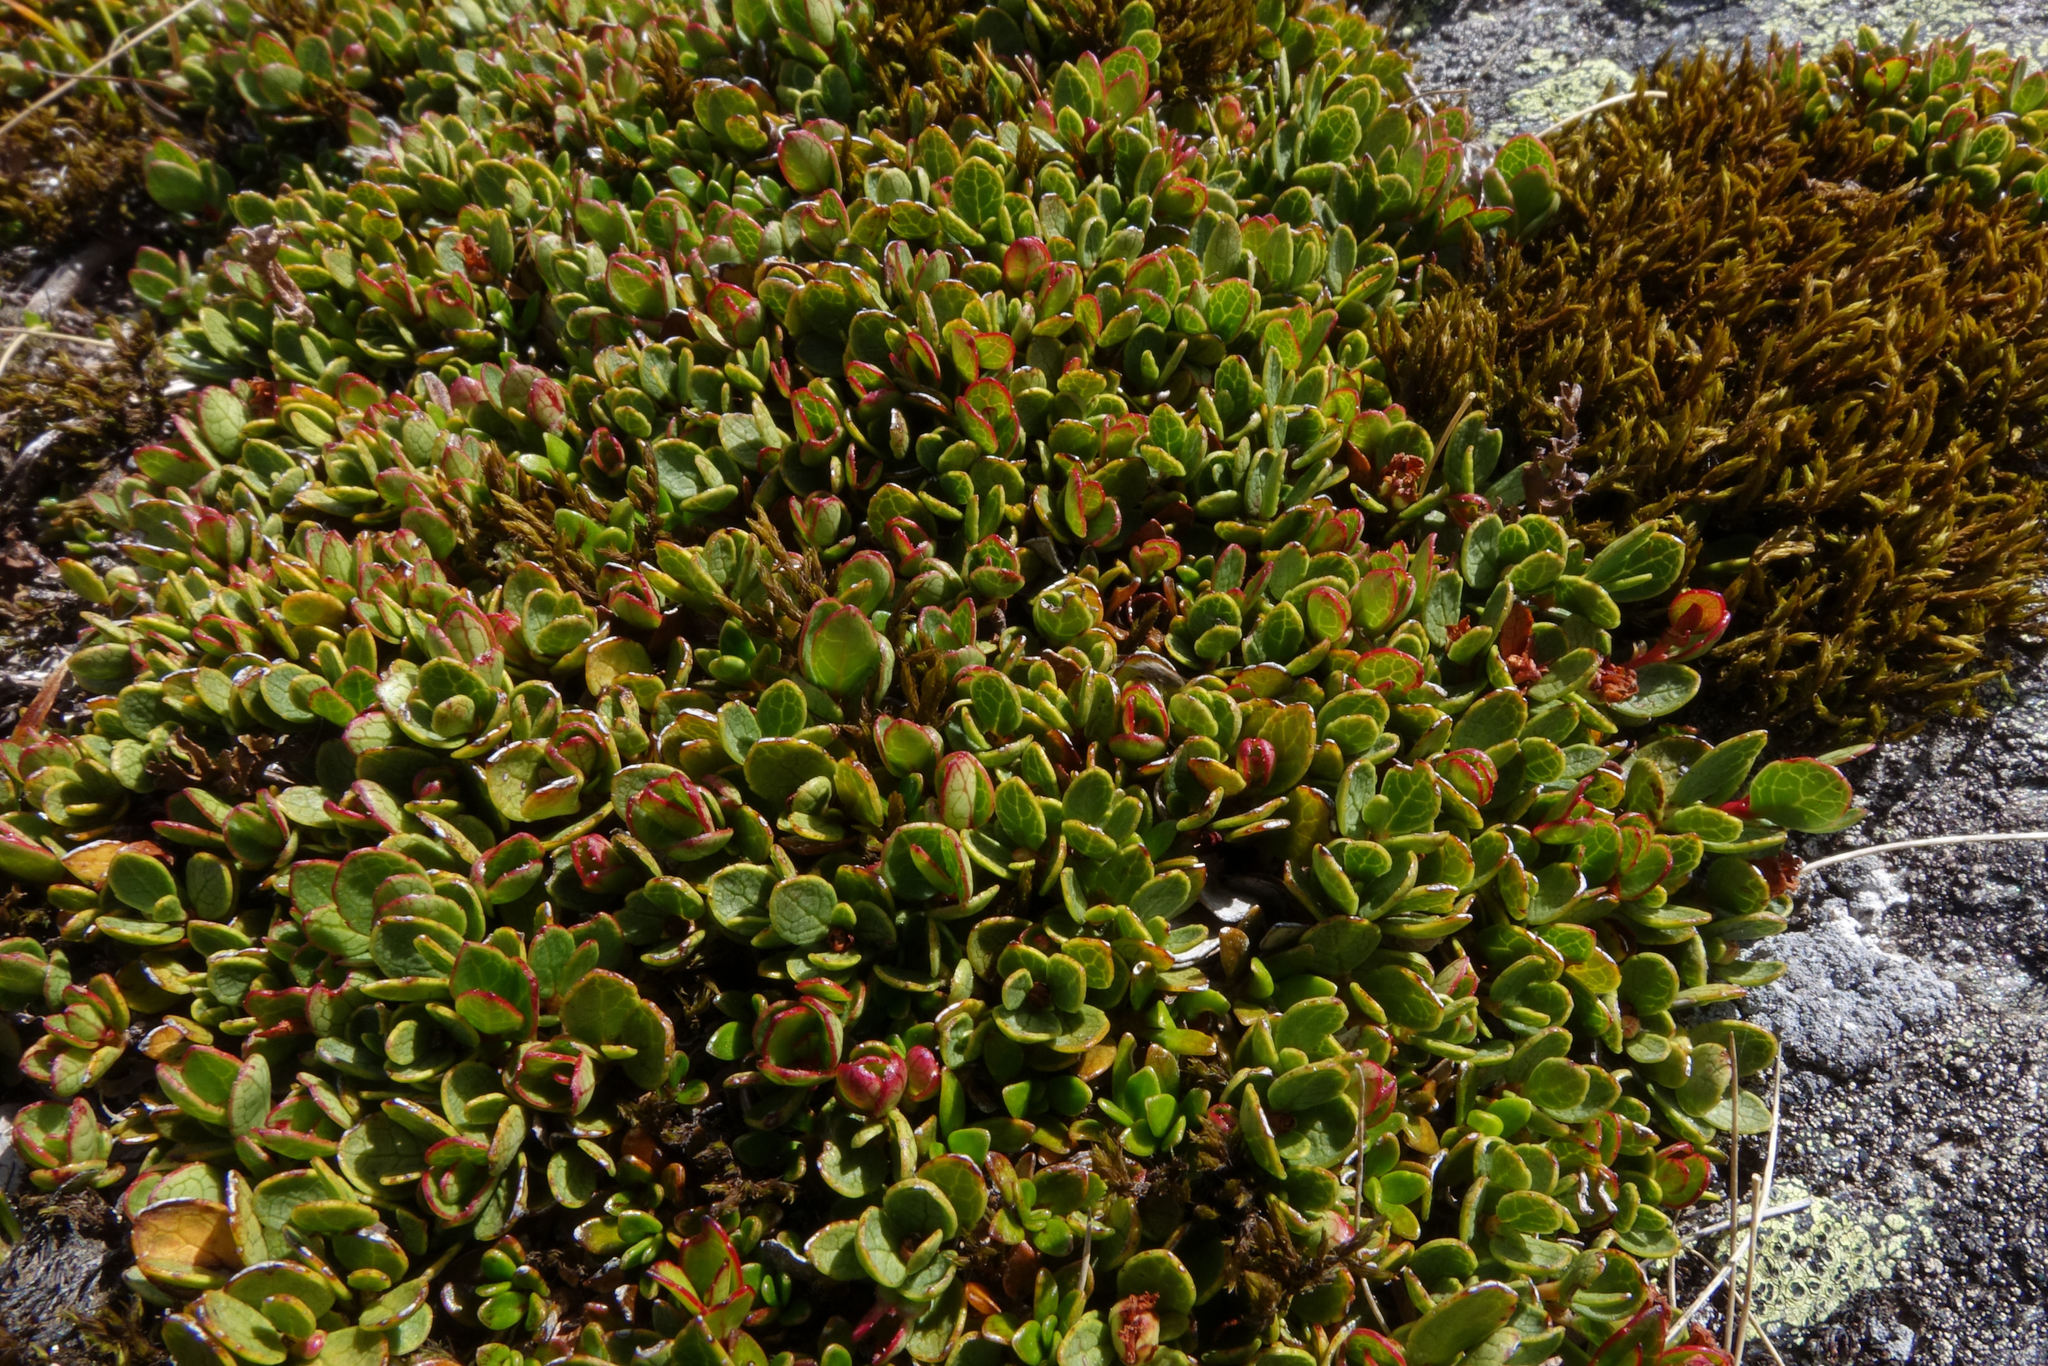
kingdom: Plantae
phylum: Tracheophyta
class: Magnoliopsida
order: Ericales
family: Ericaceae
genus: Gaultheria
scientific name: Gaultheria nubicola
